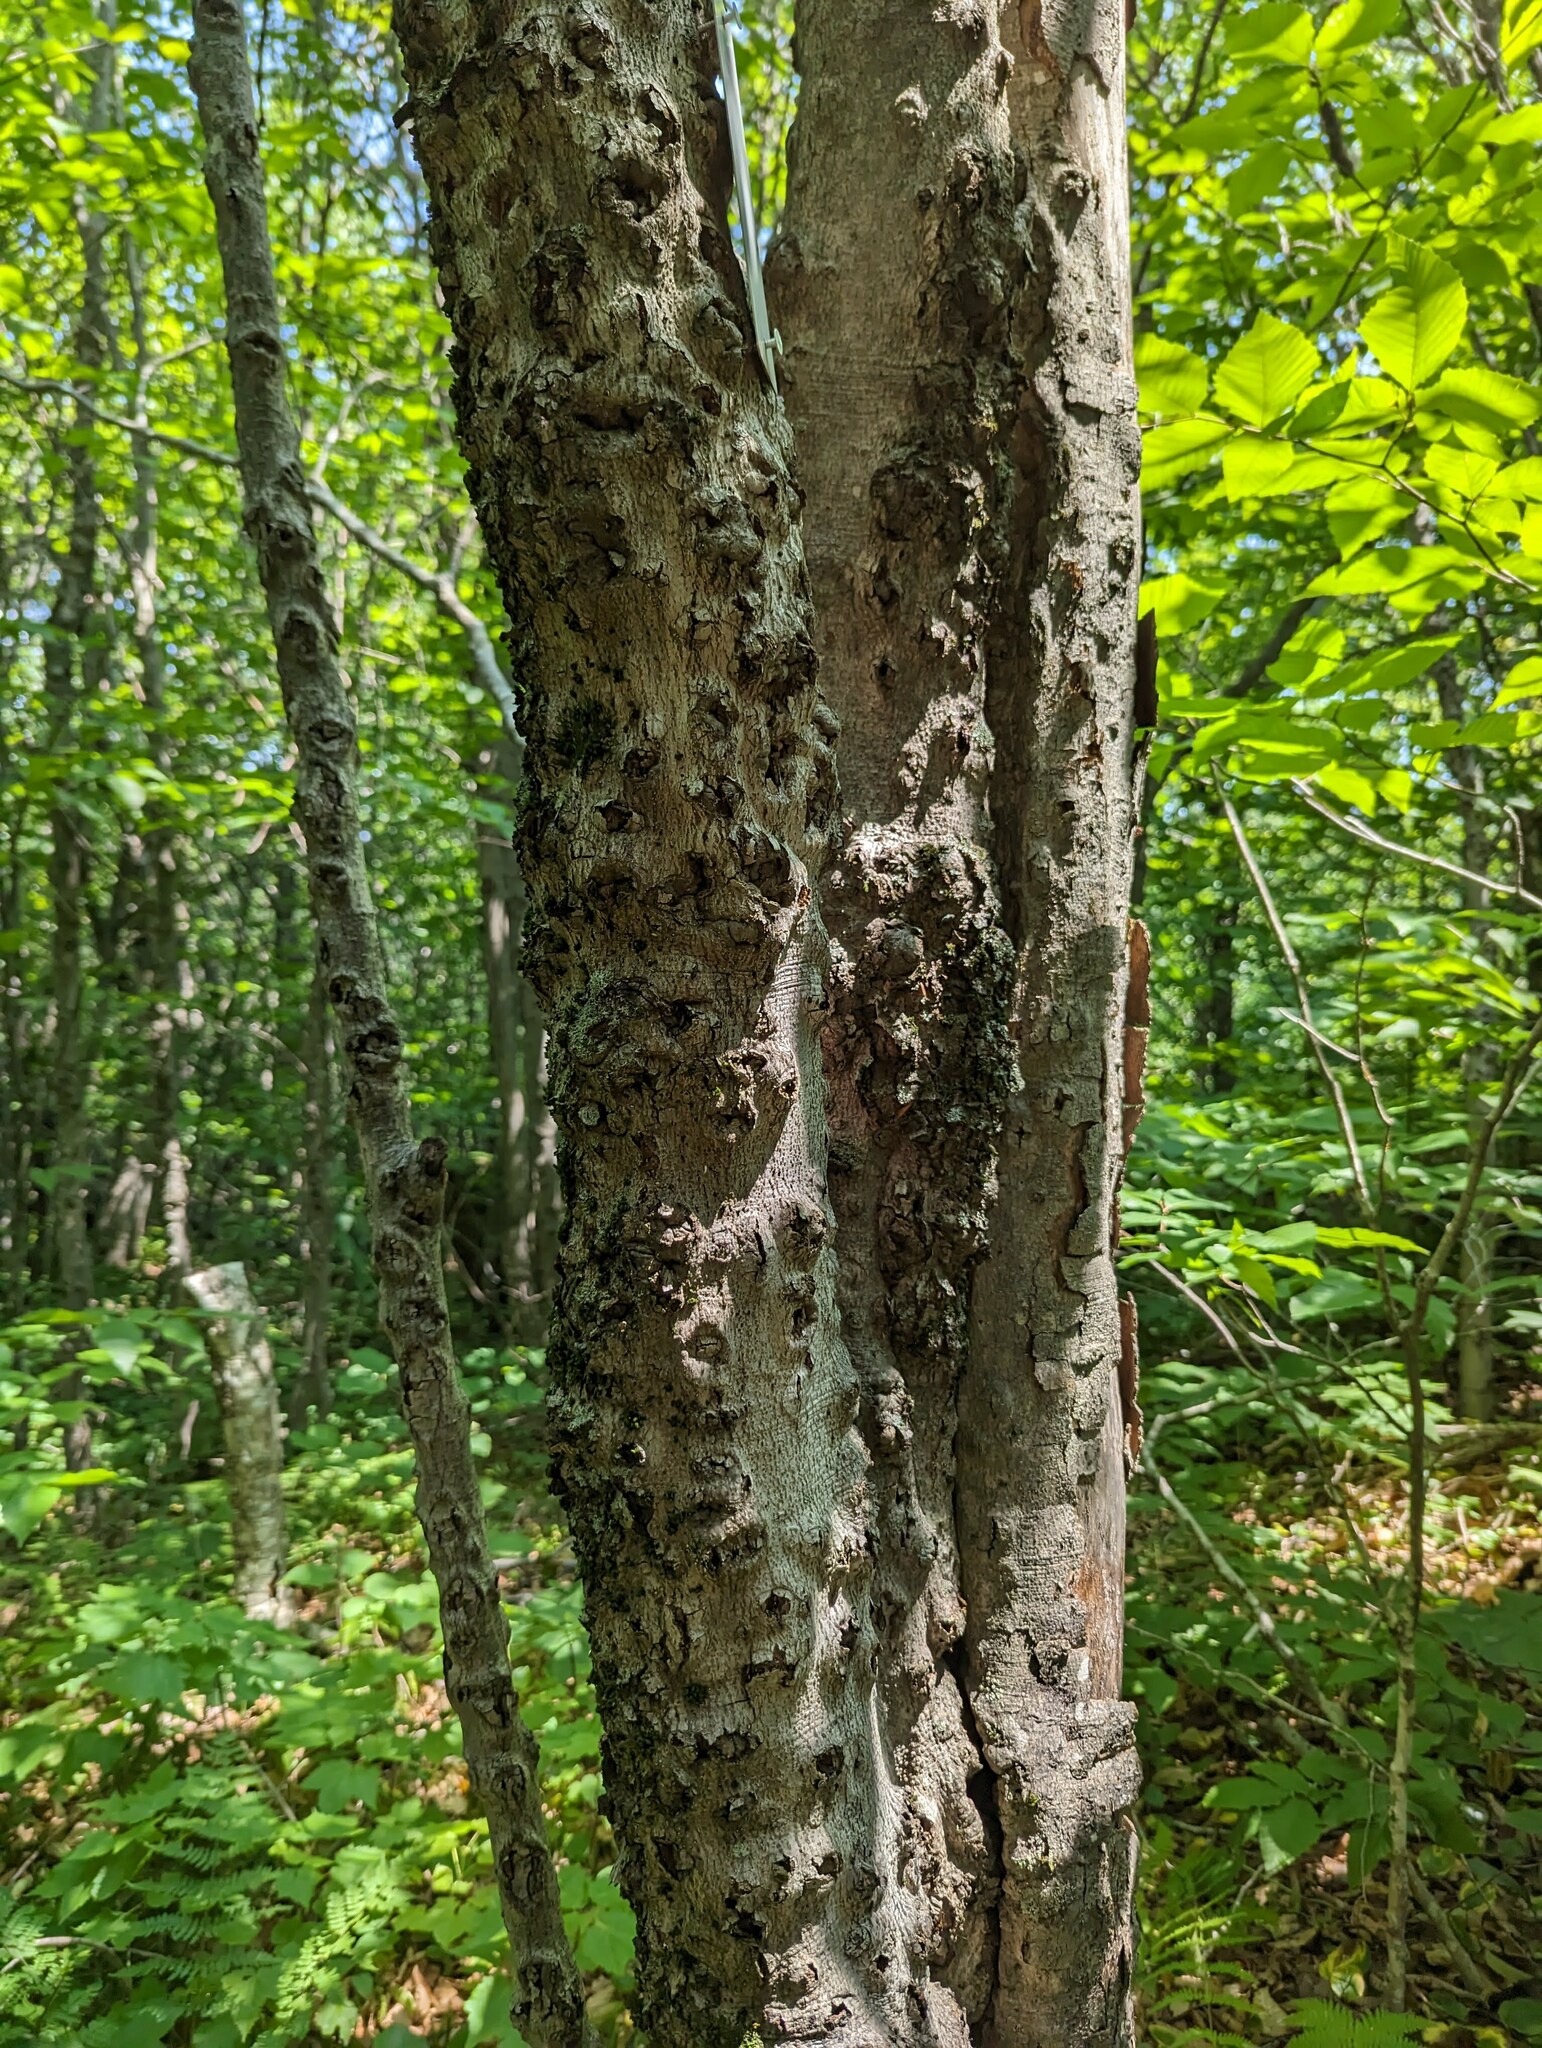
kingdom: Plantae
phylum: Tracheophyta
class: Magnoliopsida
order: Fagales
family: Fagaceae
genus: Fagus
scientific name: Fagus grandifolia
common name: American beech
